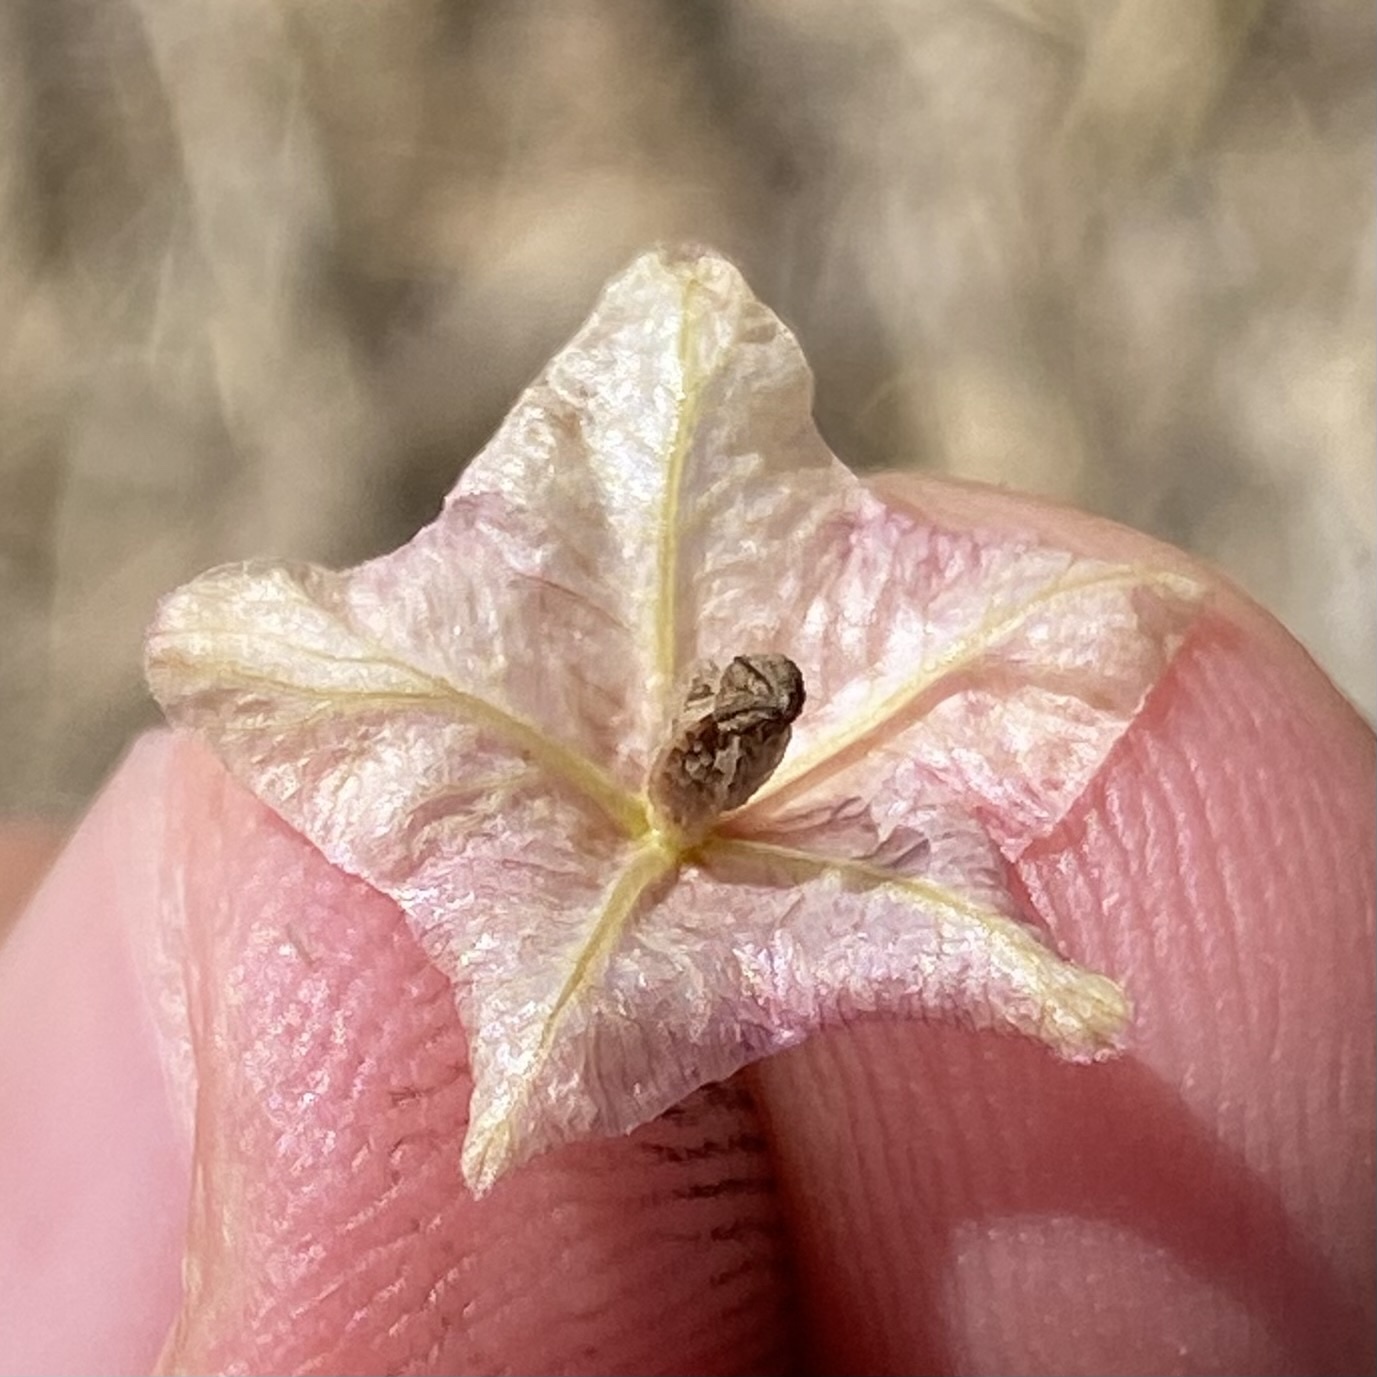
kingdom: Plantae
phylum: Tracheophyta
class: Magnoliopsida
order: Caryophyllales
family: Nyctaginaceae
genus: Mirabilis
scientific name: Mirabilis linearis
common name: Linear-leaved four-o'clock
